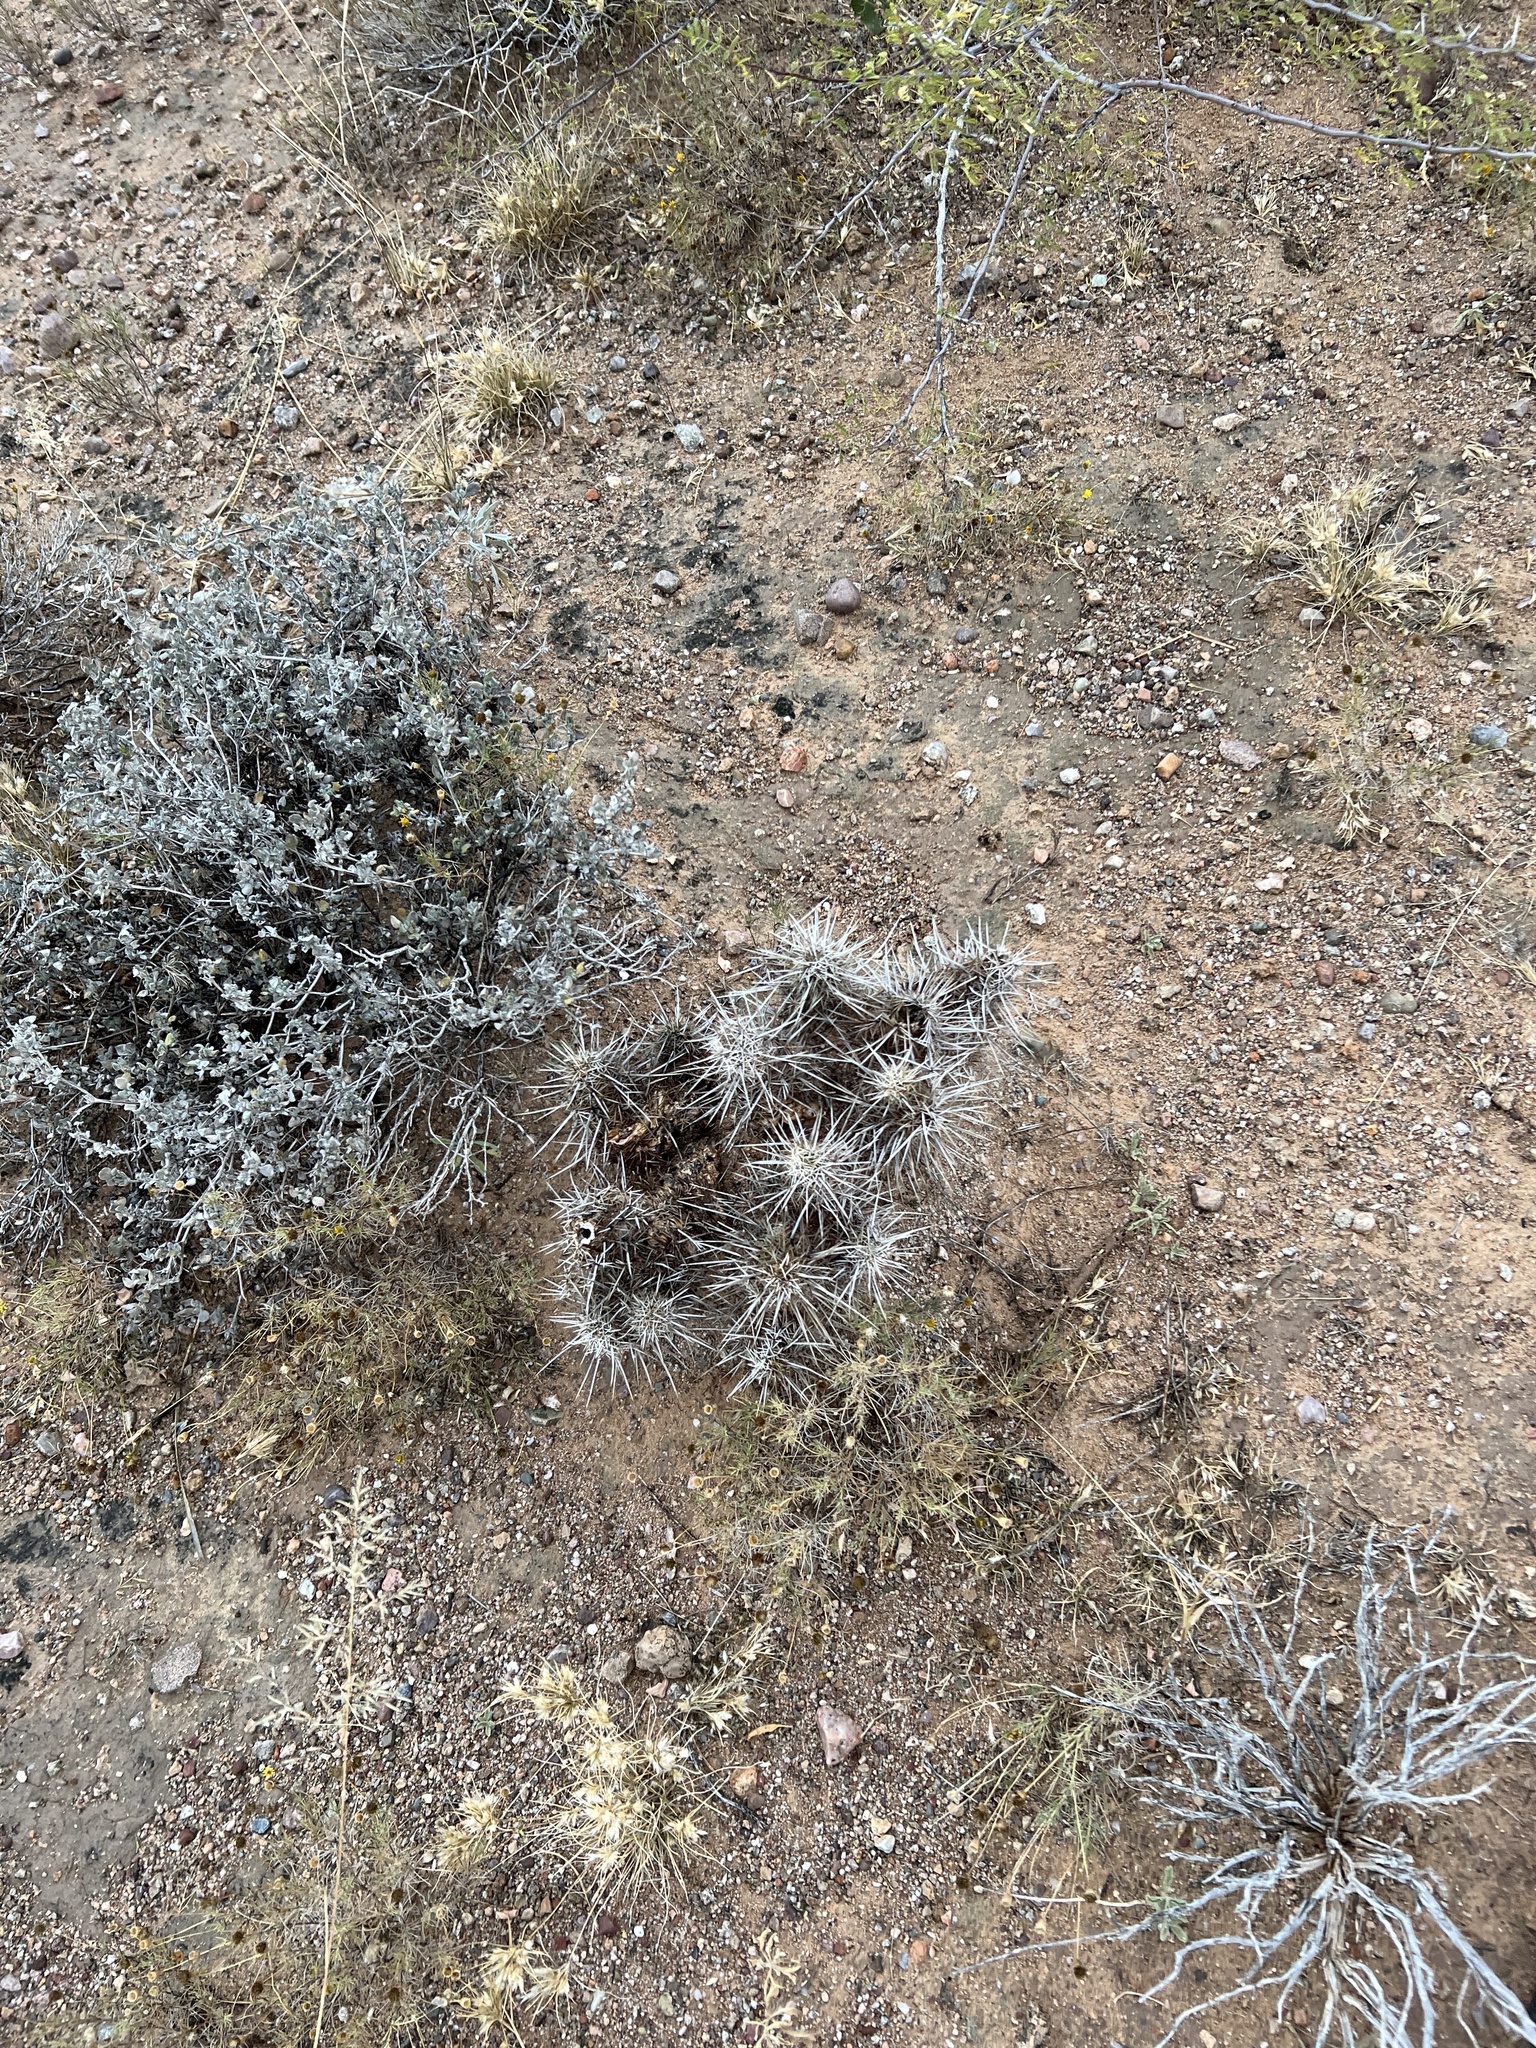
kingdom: Plantae
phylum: Tracheophyta
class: Magnoliopsida
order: Caryophyllales
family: Cactaceae
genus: Echinocereus
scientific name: Echinocereus fasciculatus
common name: Bundle hedgehog
